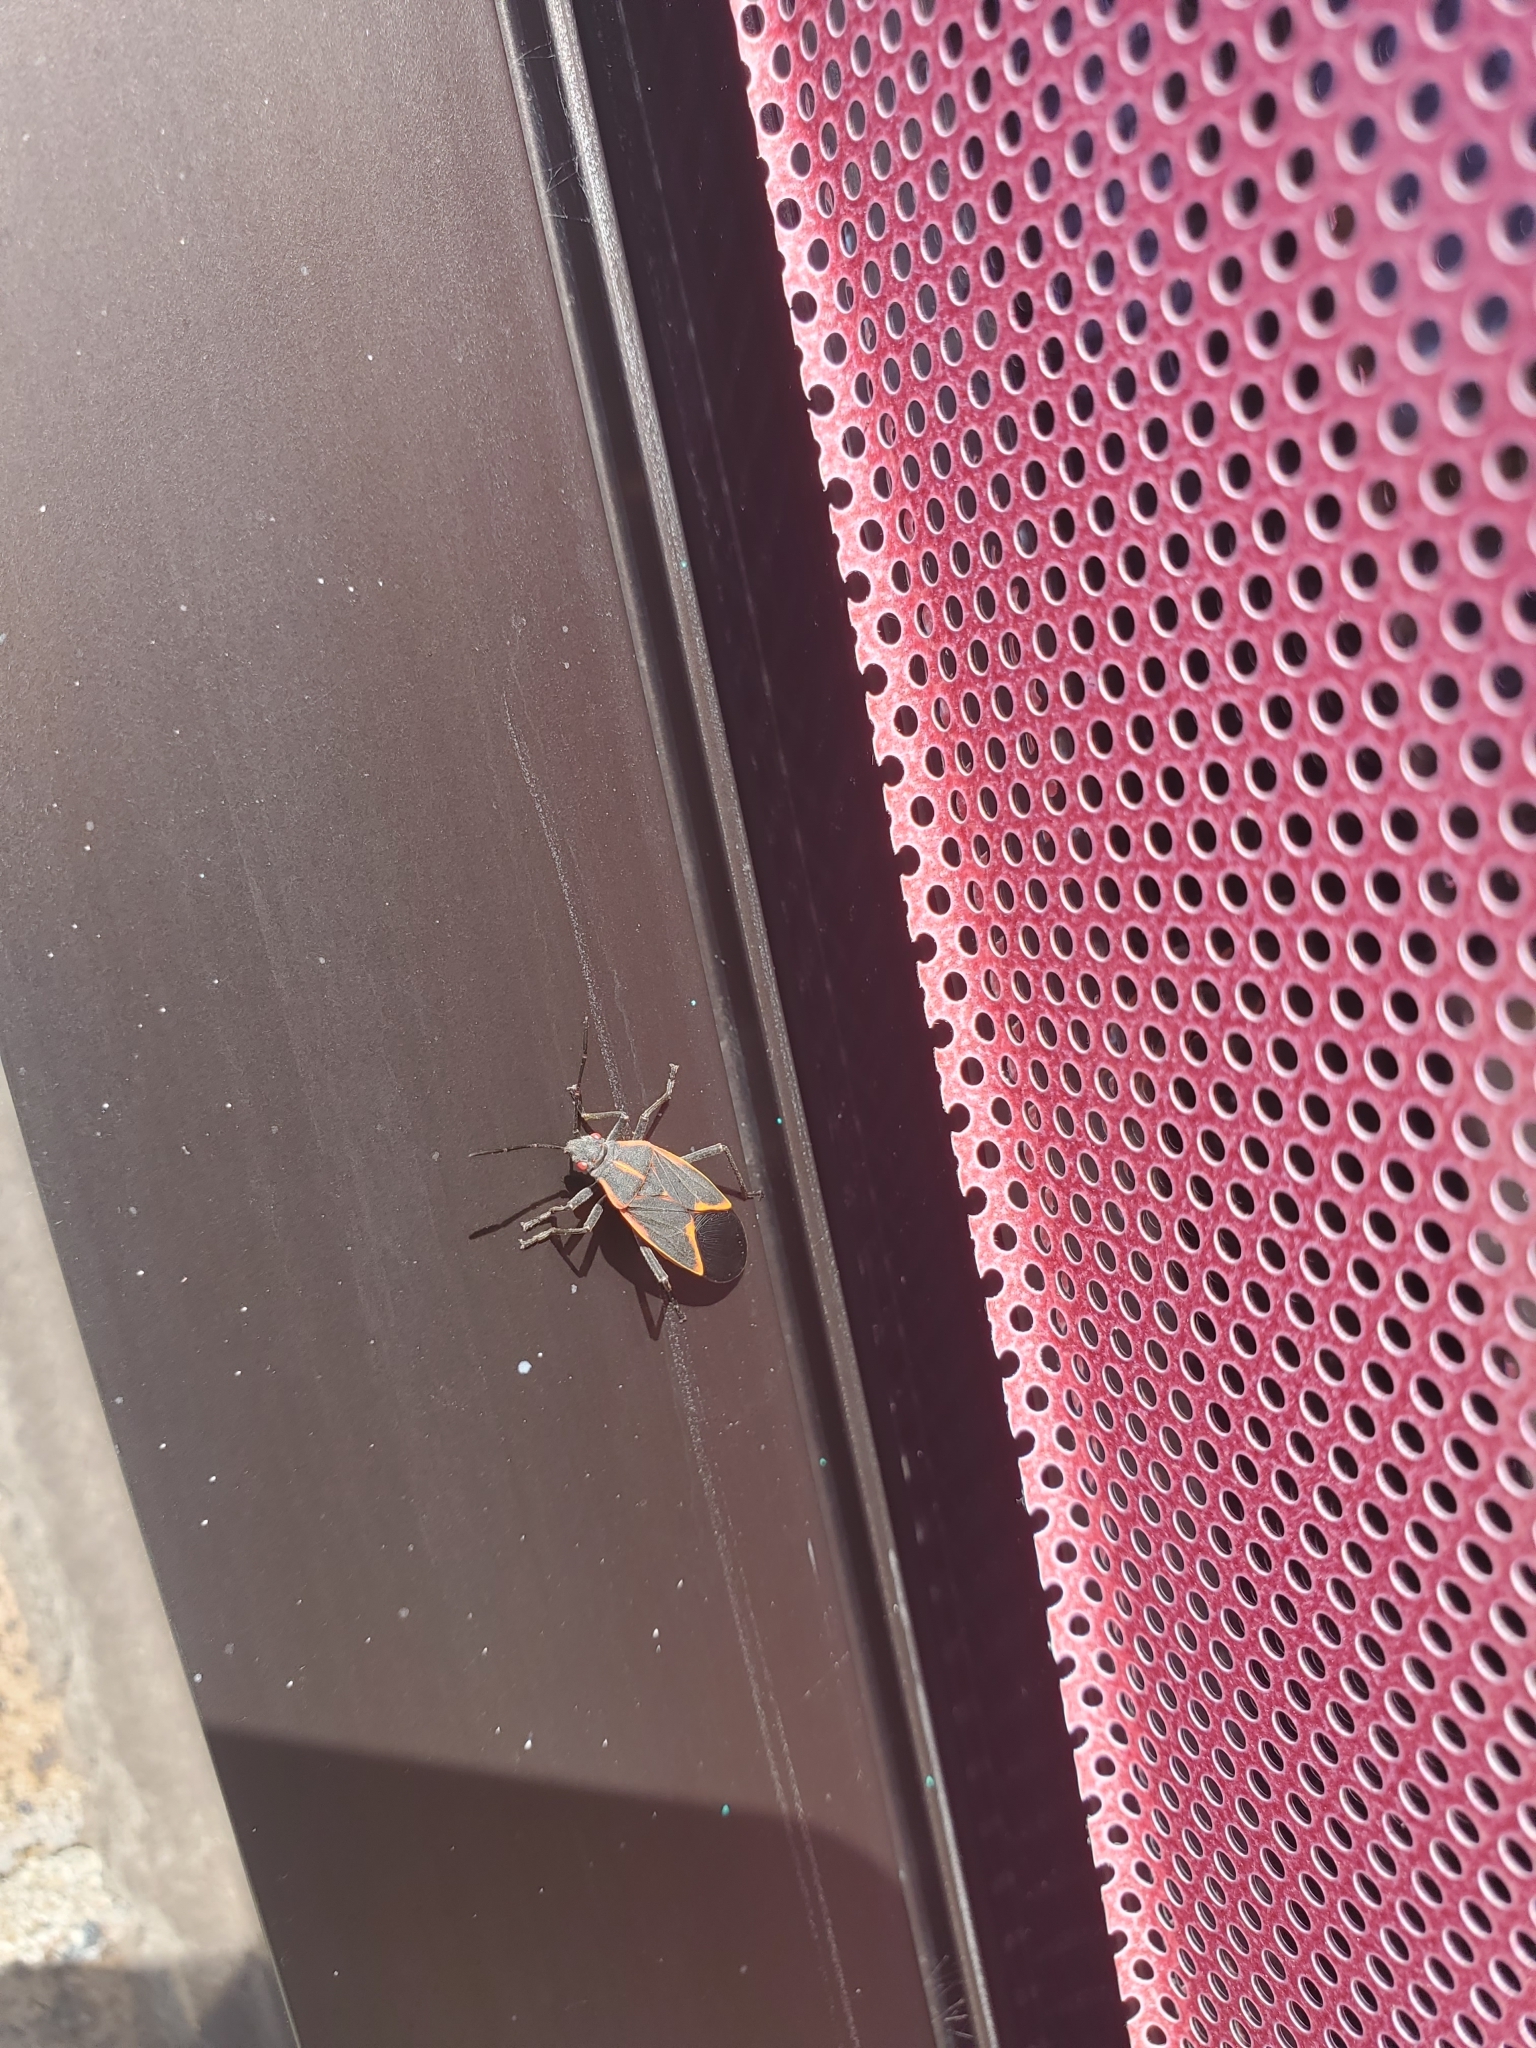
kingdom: Animalia
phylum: Arthropoda
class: Insecta
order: Hemiptera
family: Rhopalidae
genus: Boisea
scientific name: Boisea trivittata
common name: Boxelder bug
